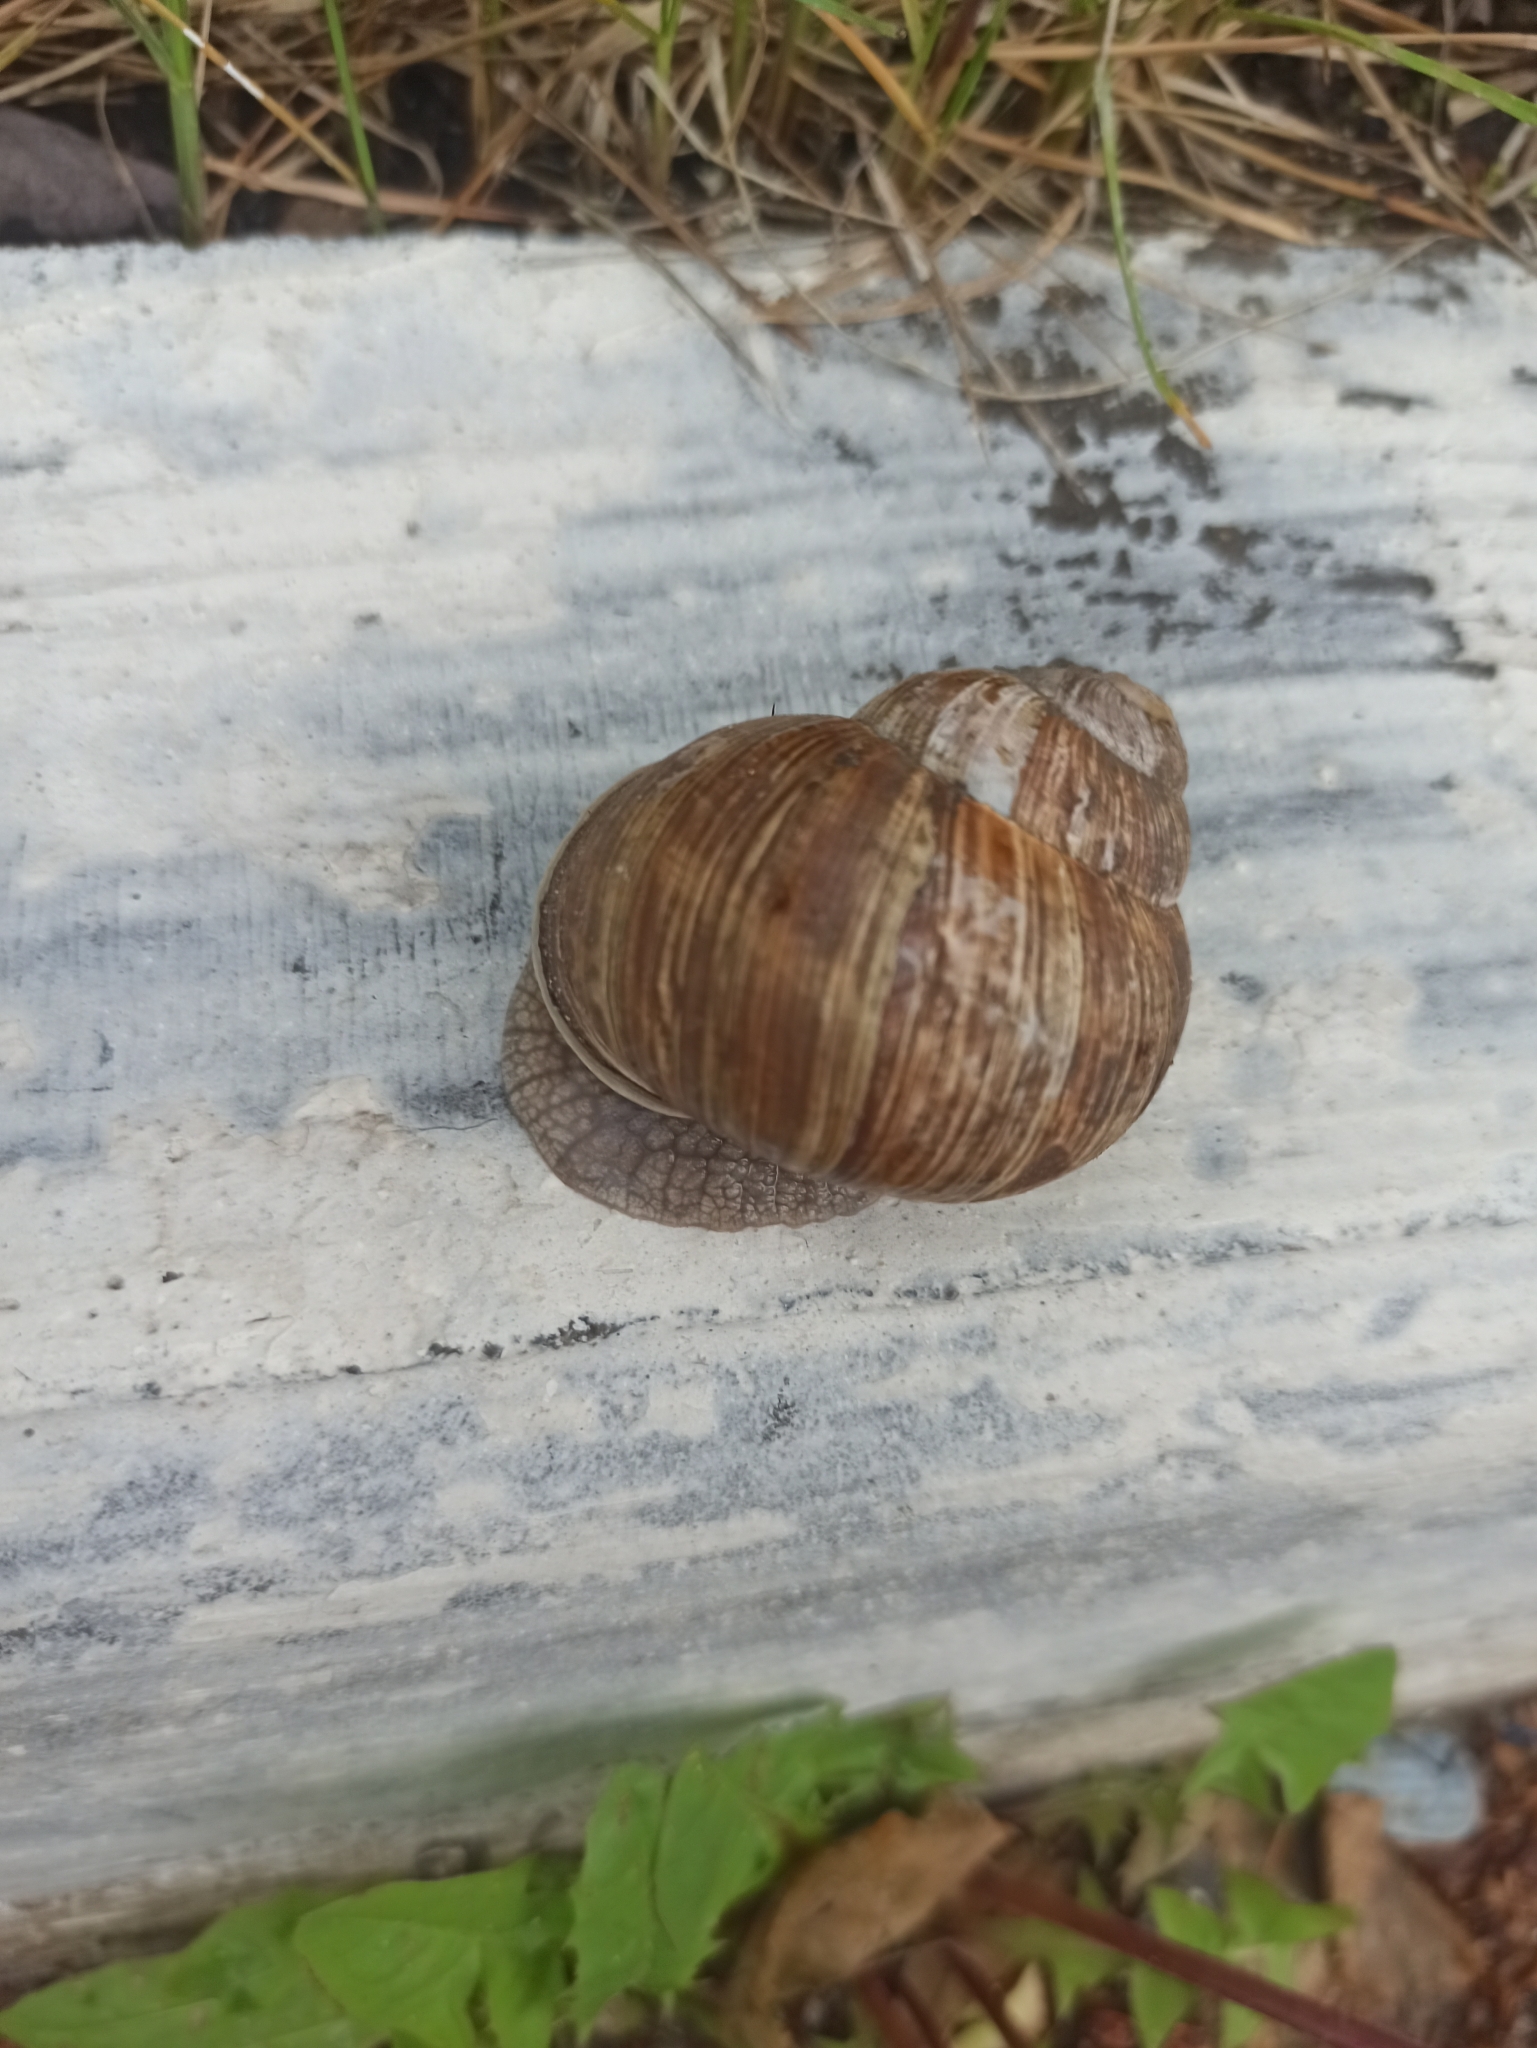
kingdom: Animalia
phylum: Mollusca
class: Gastropoda
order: Stylommatophora
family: Helicidae
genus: Helix
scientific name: Helix pomatia
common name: Roman snail
